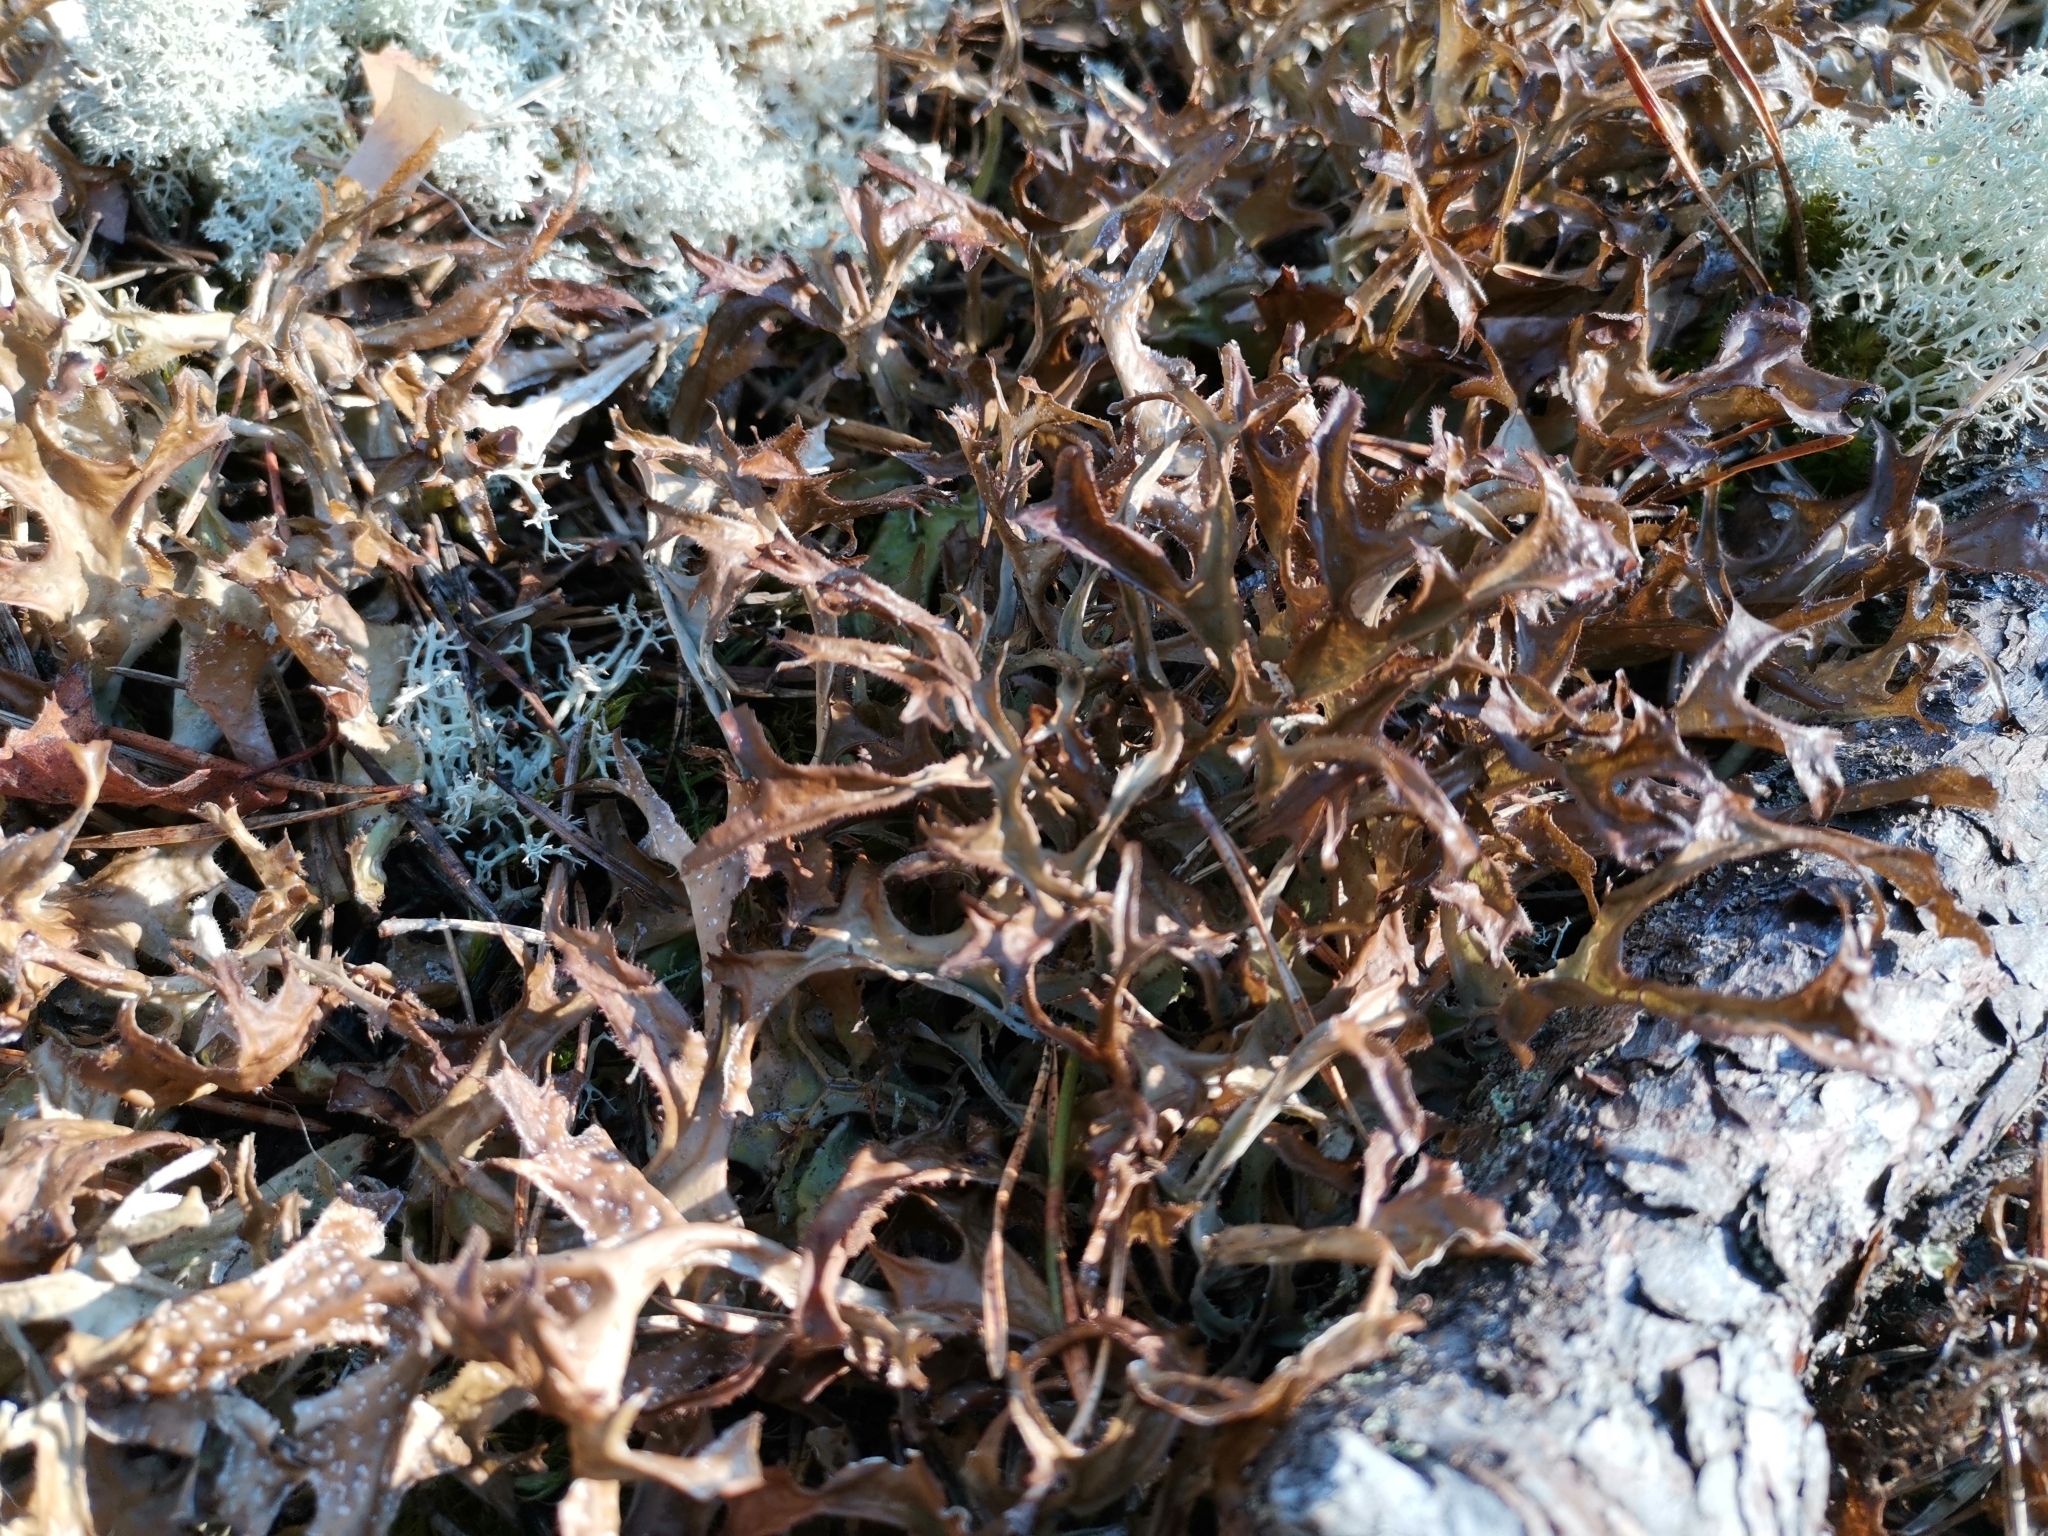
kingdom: Fungi
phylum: Ascomycota
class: Lecanoromycetes
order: Lecanorales
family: Parmeliaceae
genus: Cetraria
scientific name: Cetraria islandica
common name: Iceland lichen
